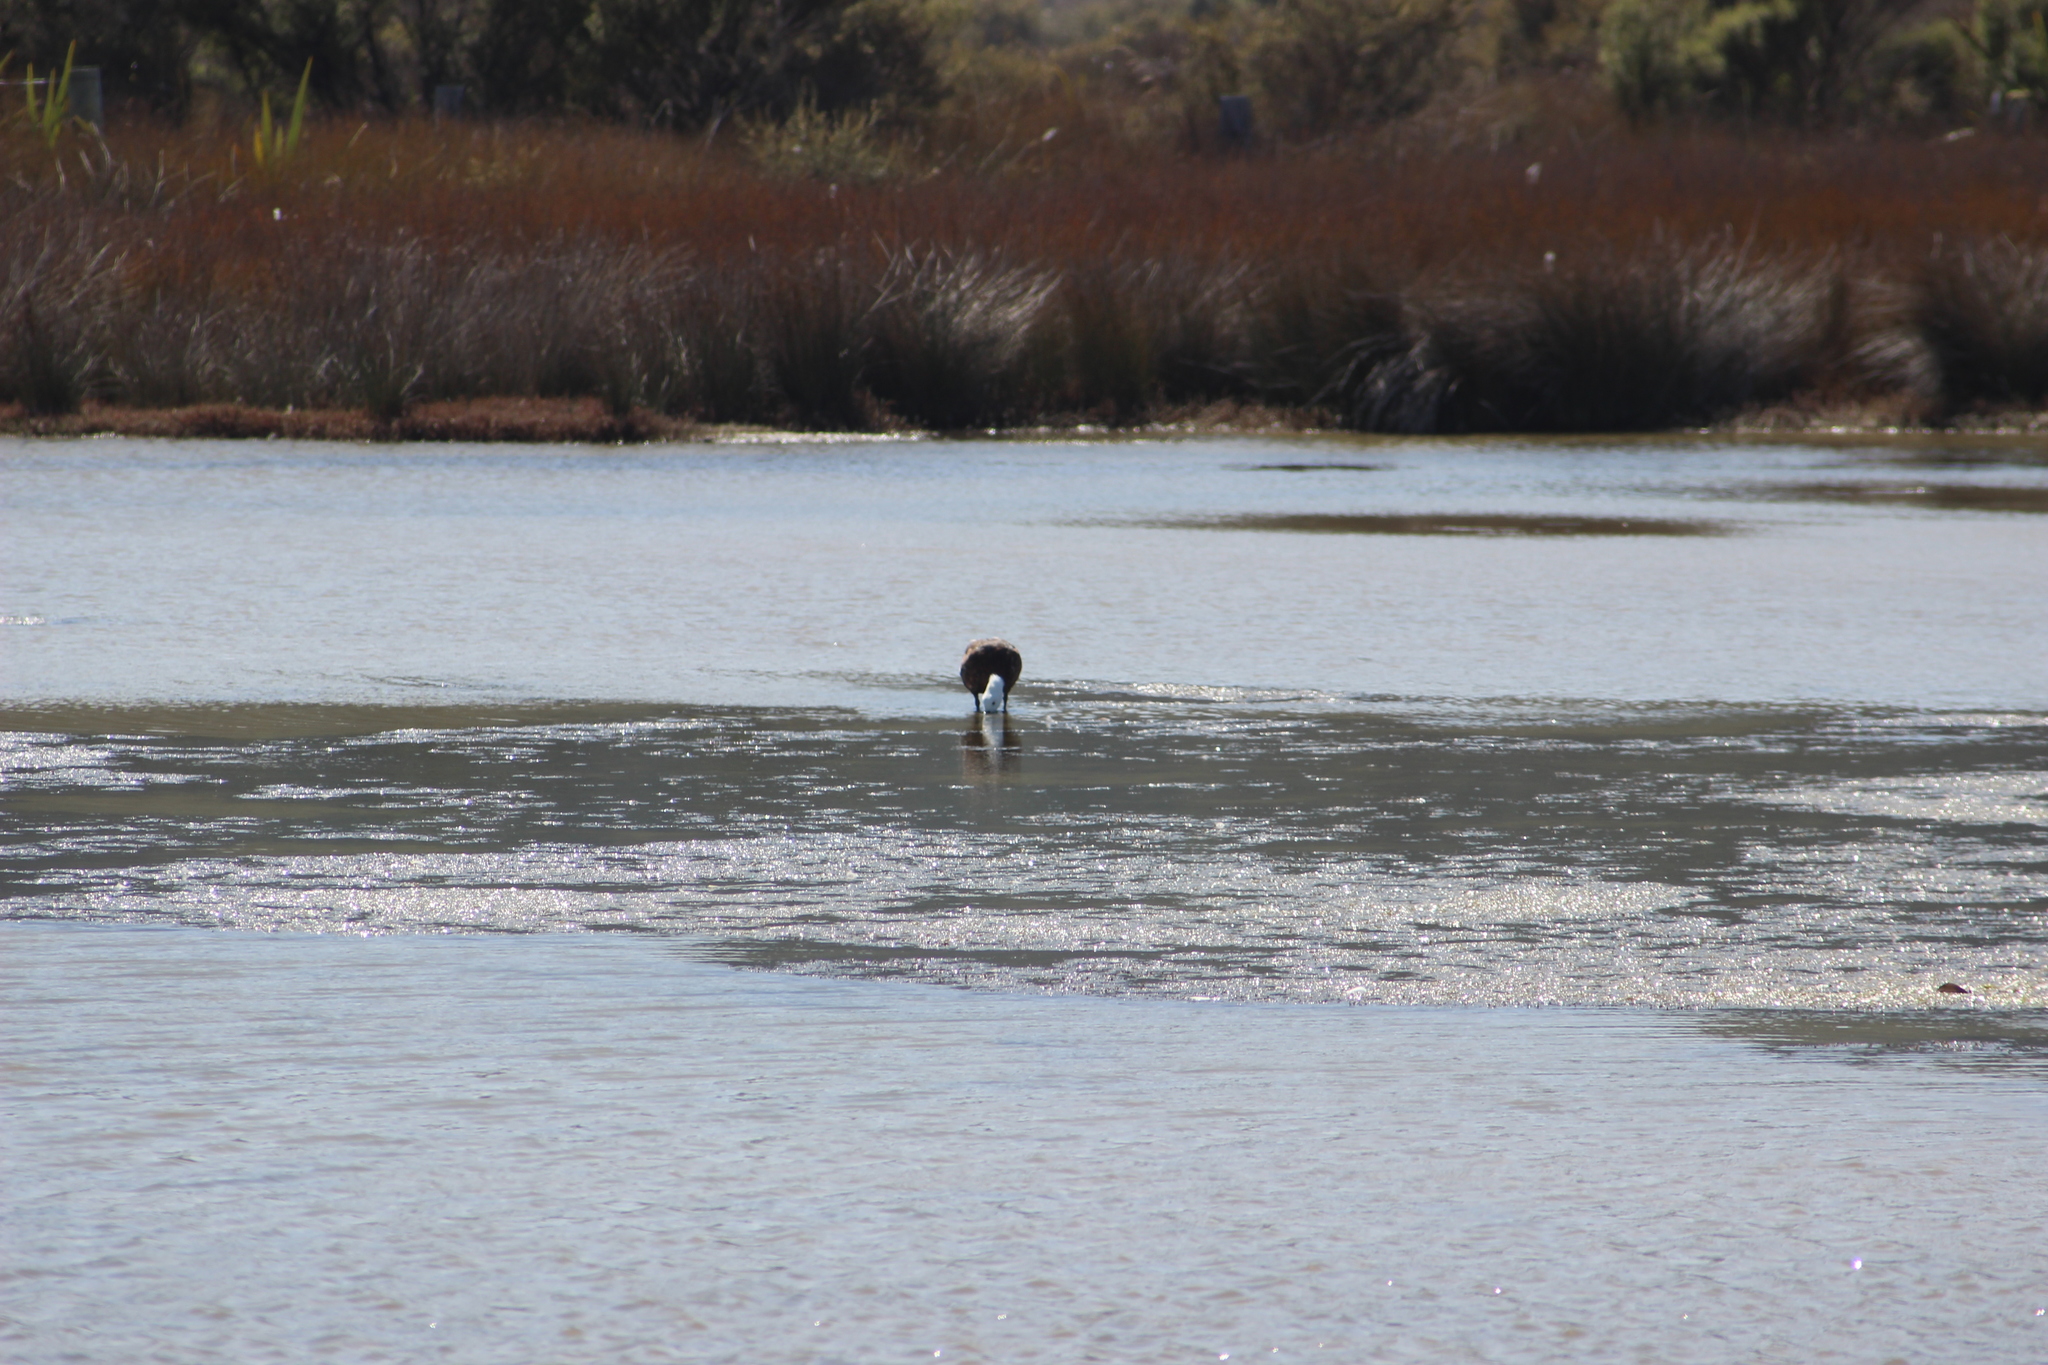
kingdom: Animalia
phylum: Chordata
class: Aves
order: Anseriformes
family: Anatidae
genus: Tadorna
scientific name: Tadorna variegata
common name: Paradise shelduck
